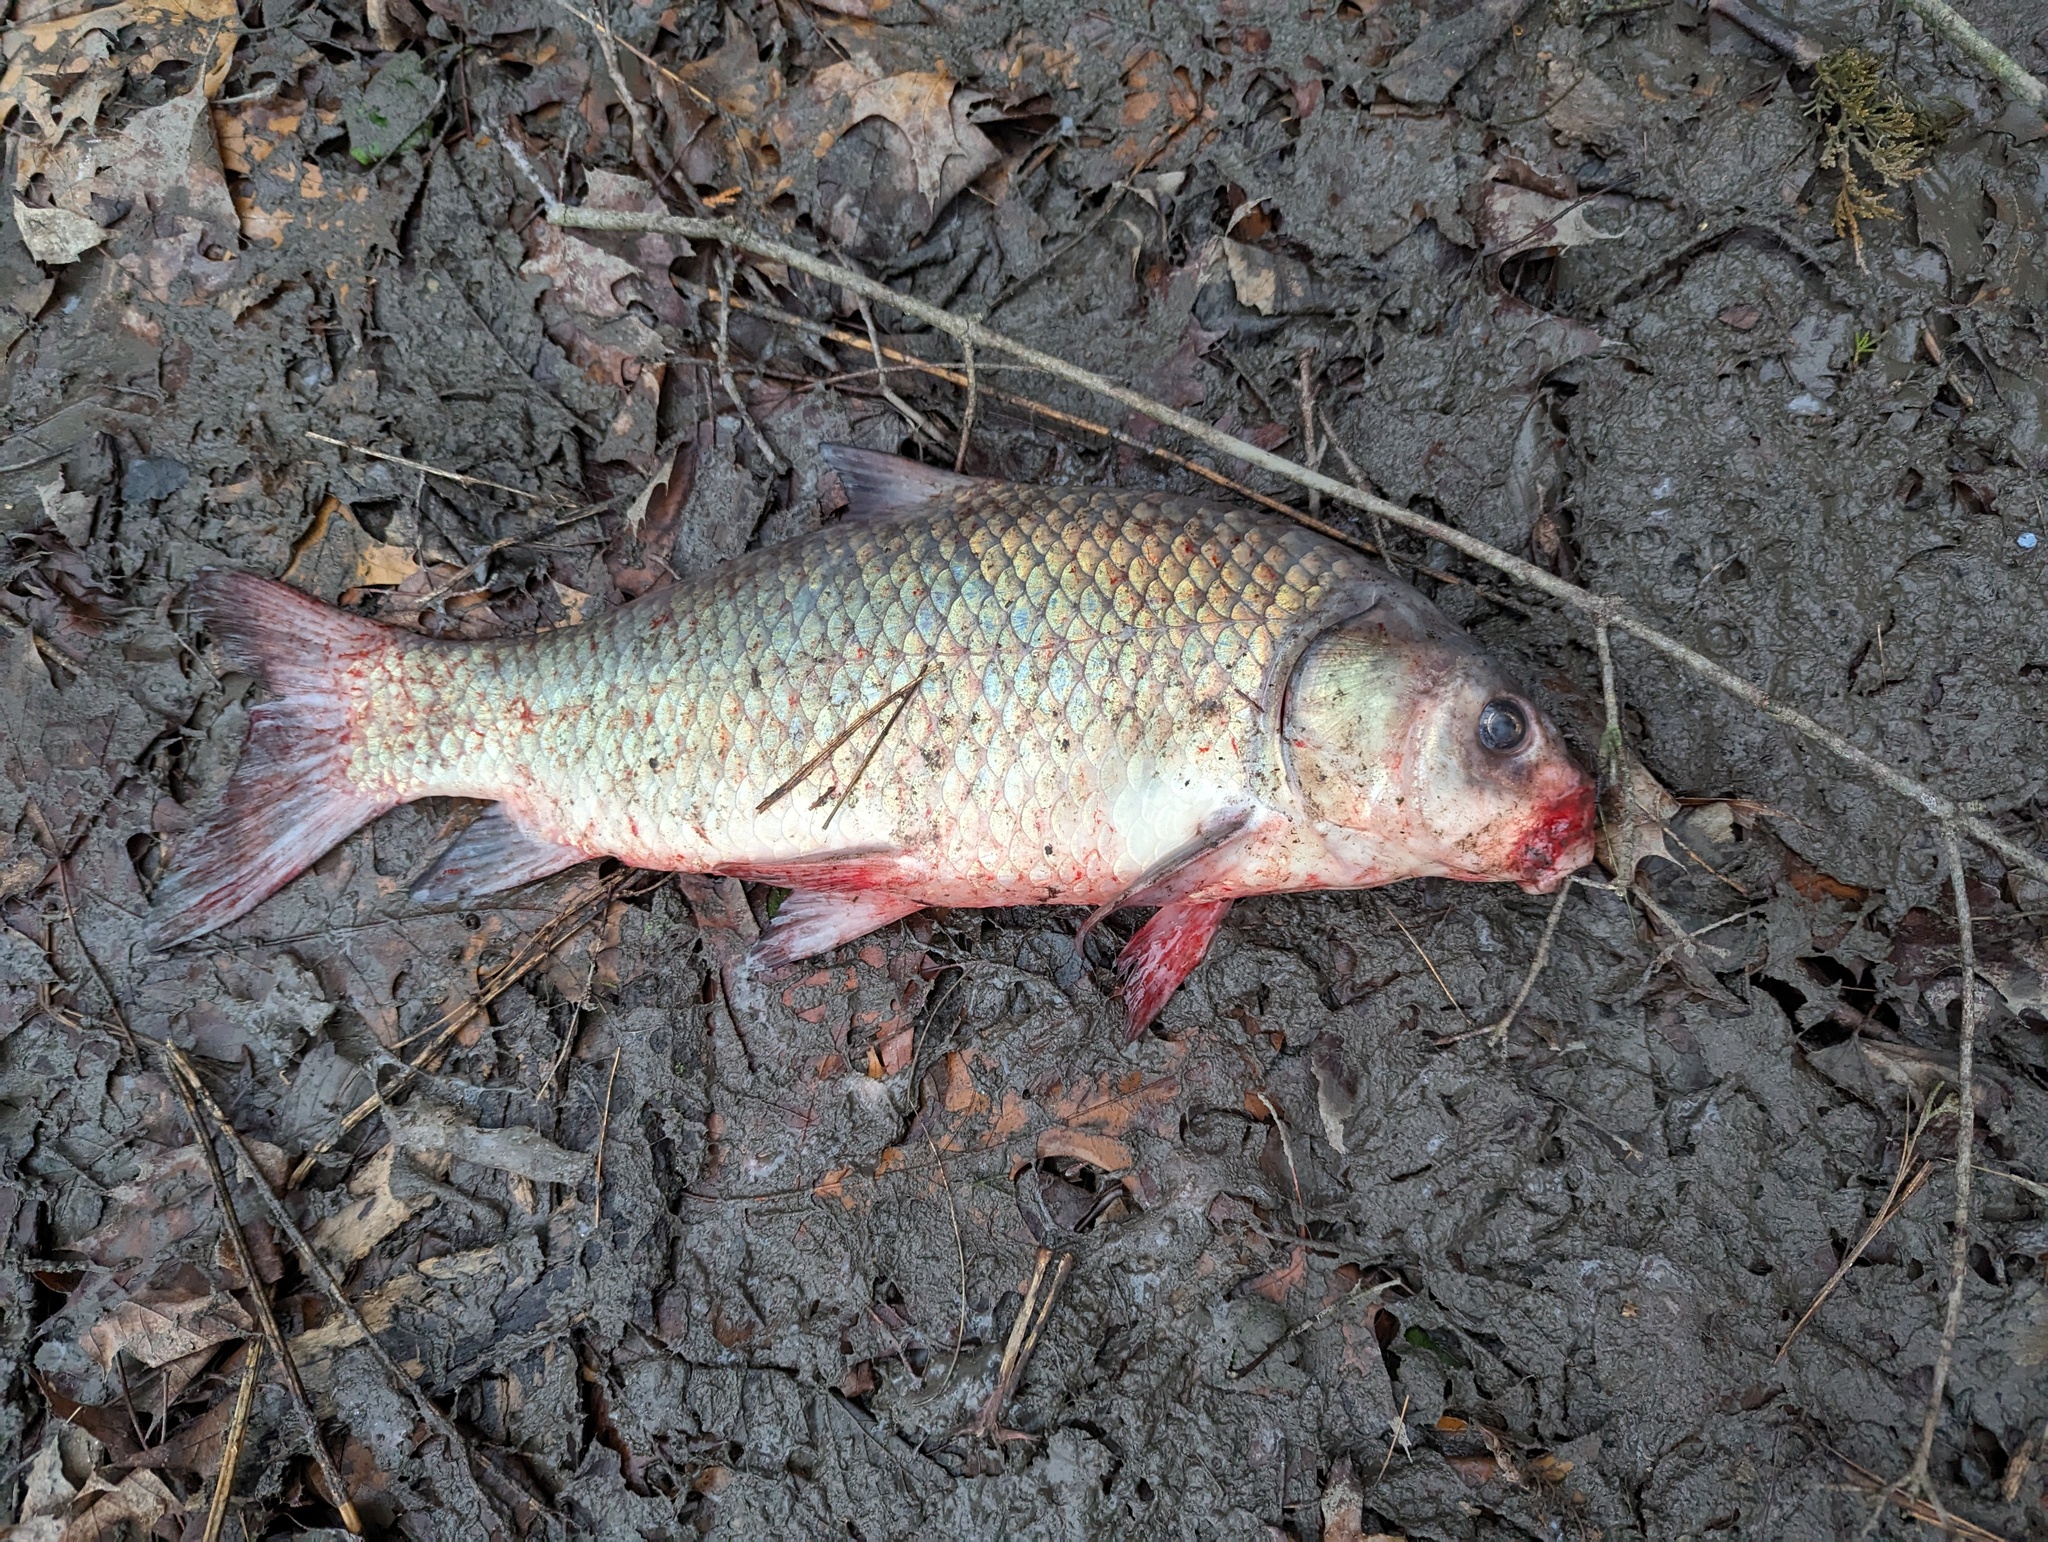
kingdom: Animalia
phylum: Chordata
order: Cypriniformes
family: Catostomidae
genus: Ictiobus
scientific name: Ictiobus bubalus
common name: Smallmouth buffalo
